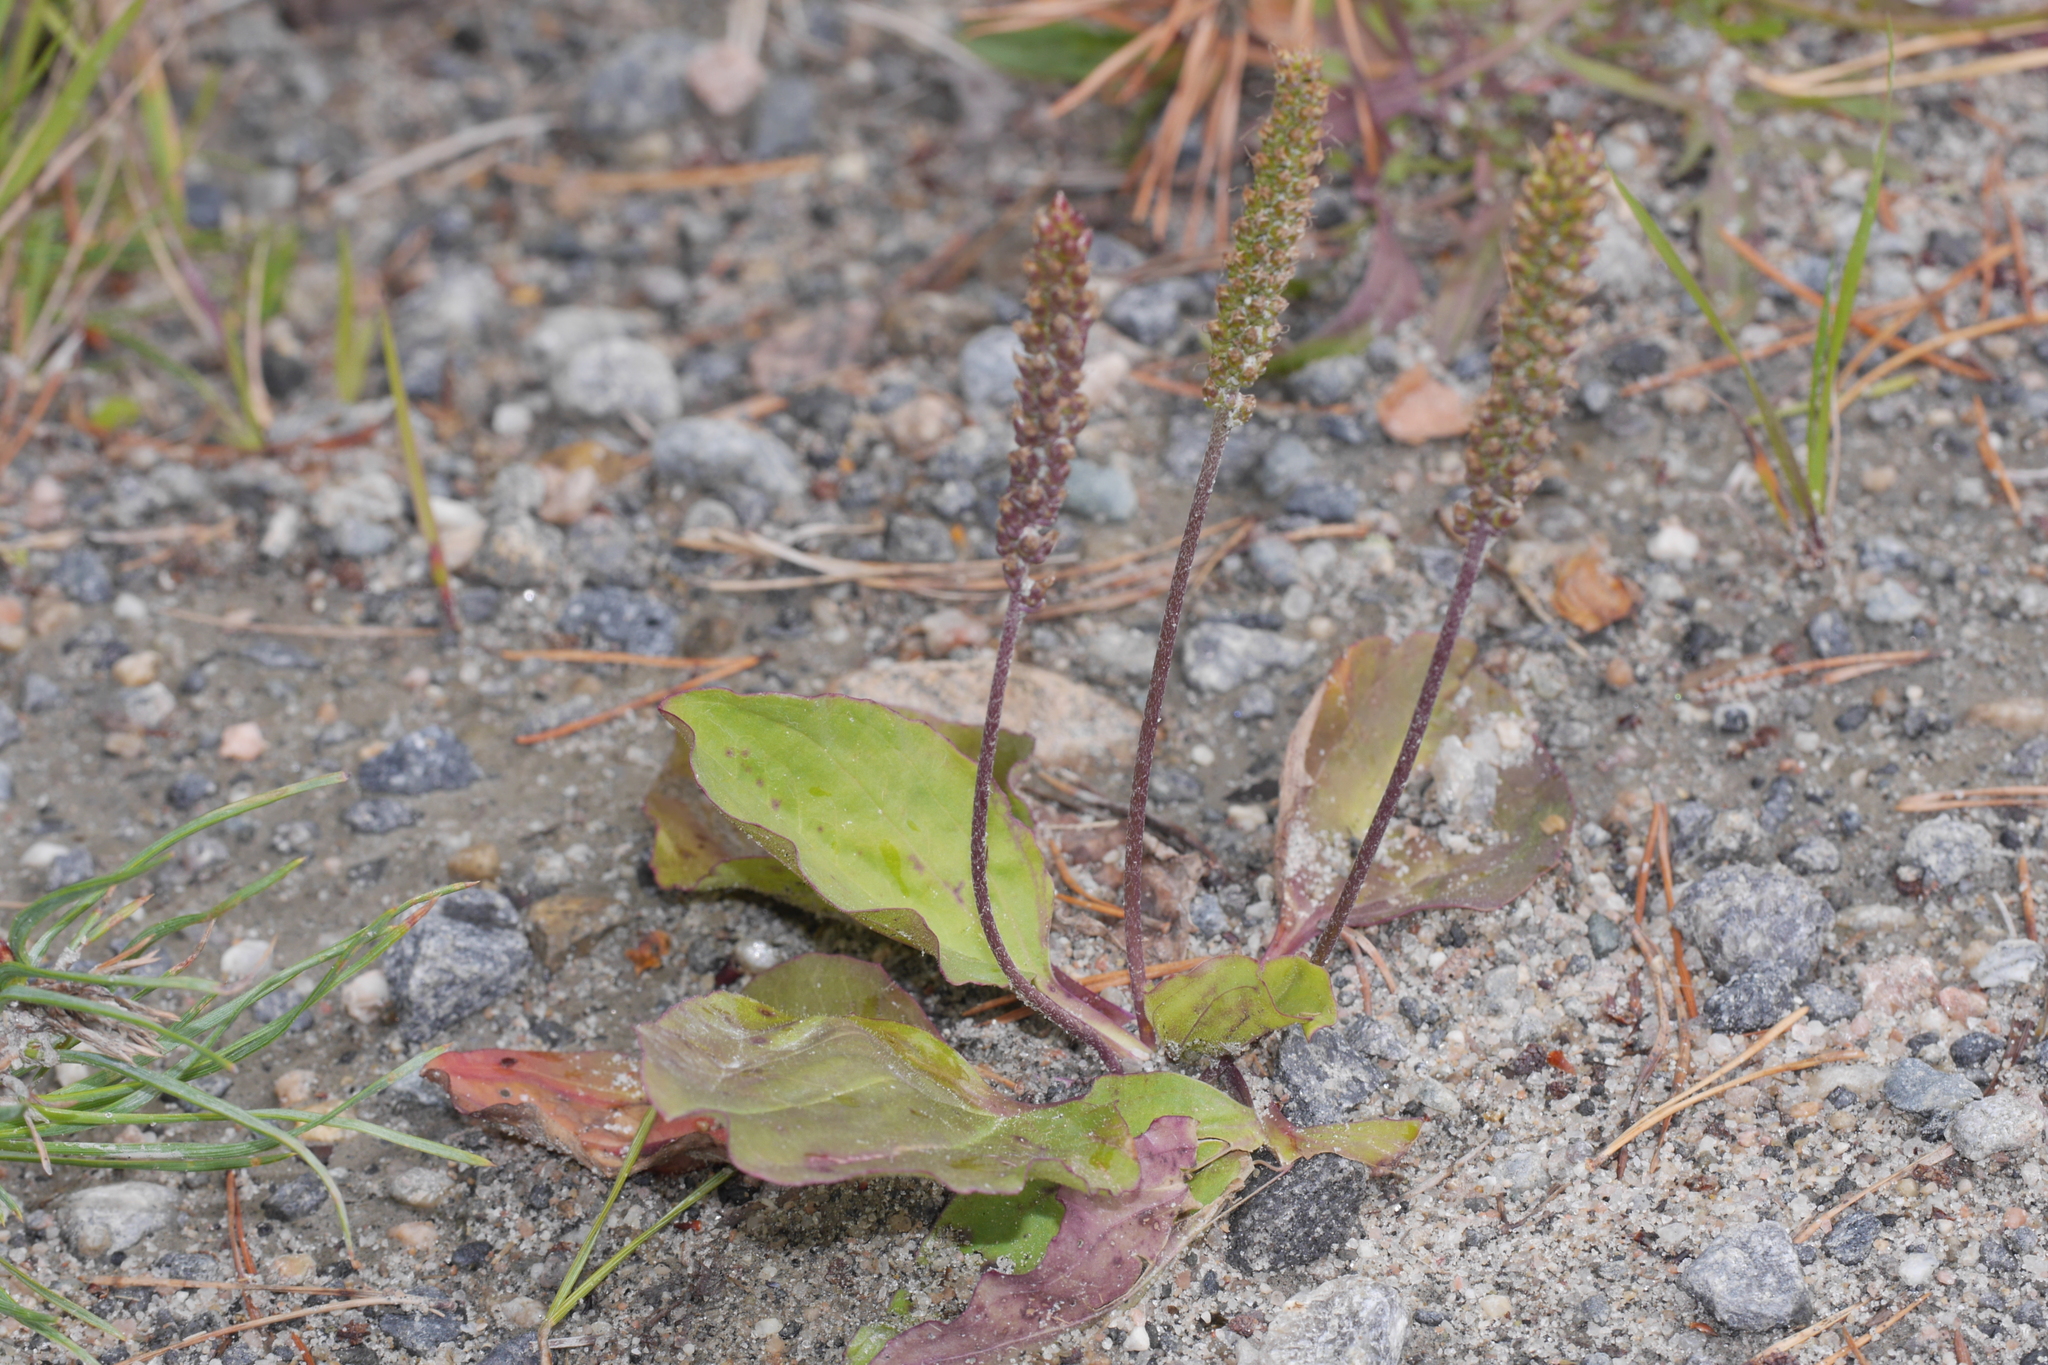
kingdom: Plantae
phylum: Tracheophyta
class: Magnoliopsida
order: Lamiales
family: Plantaginaceae
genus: Plantago
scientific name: Plantago major
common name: Common plantain
